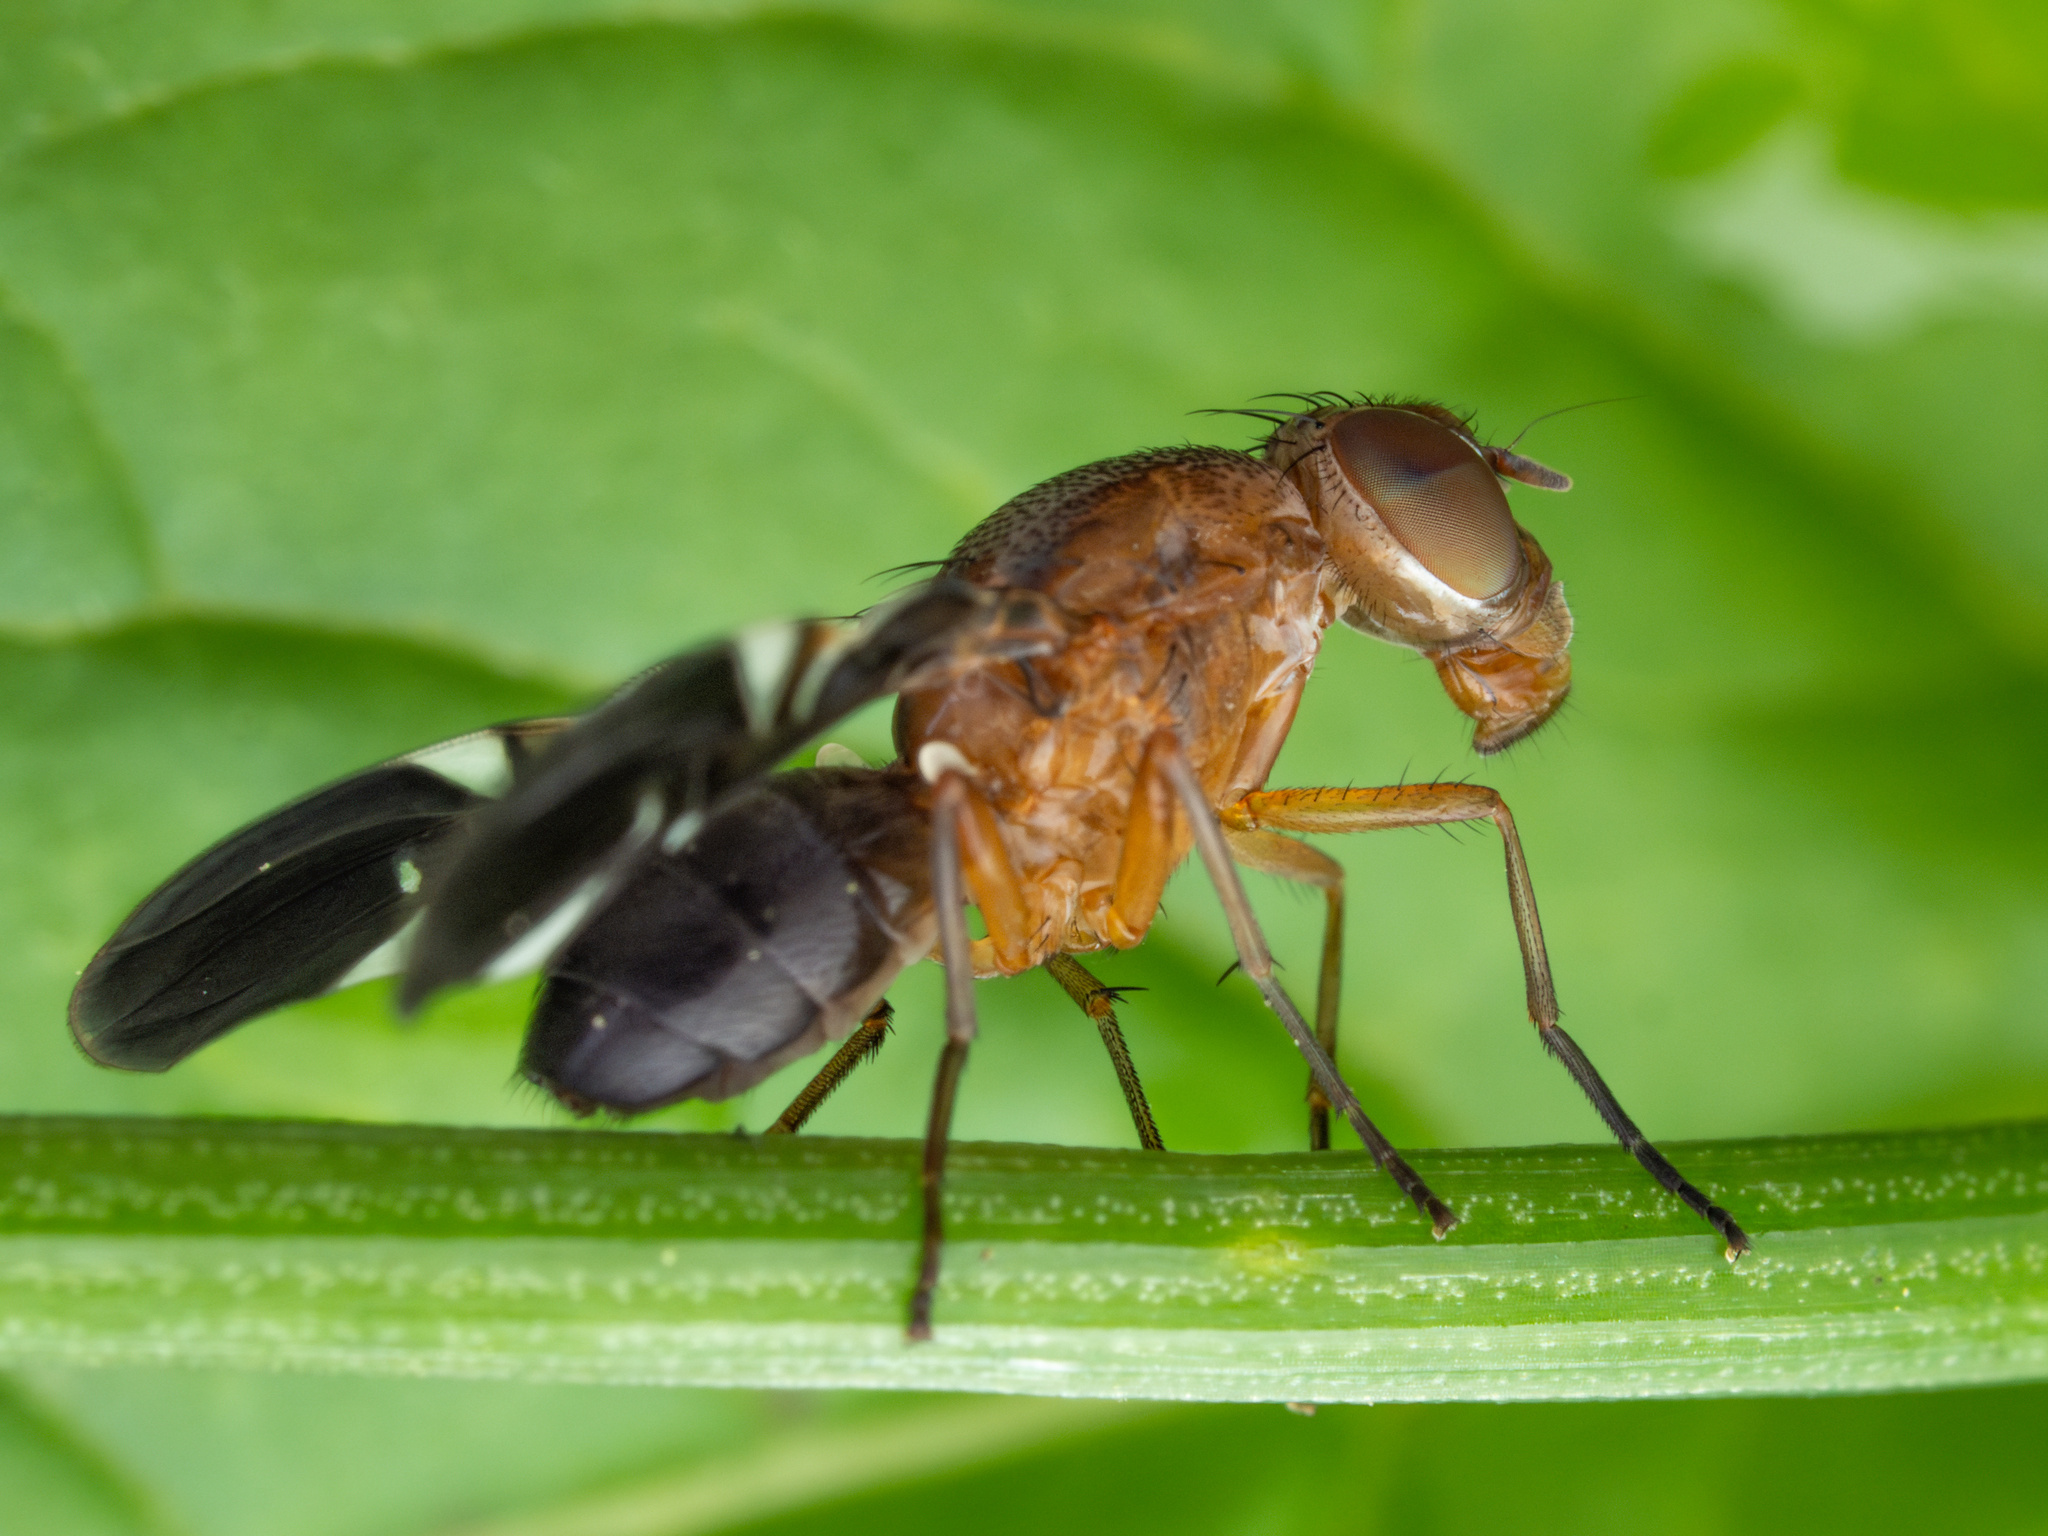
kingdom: Animalia
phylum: Arthropoda
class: Insecta
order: Diptera
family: Ulidiidae
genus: Delphinia
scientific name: Delphinia picta
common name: Common picture-winged fly
